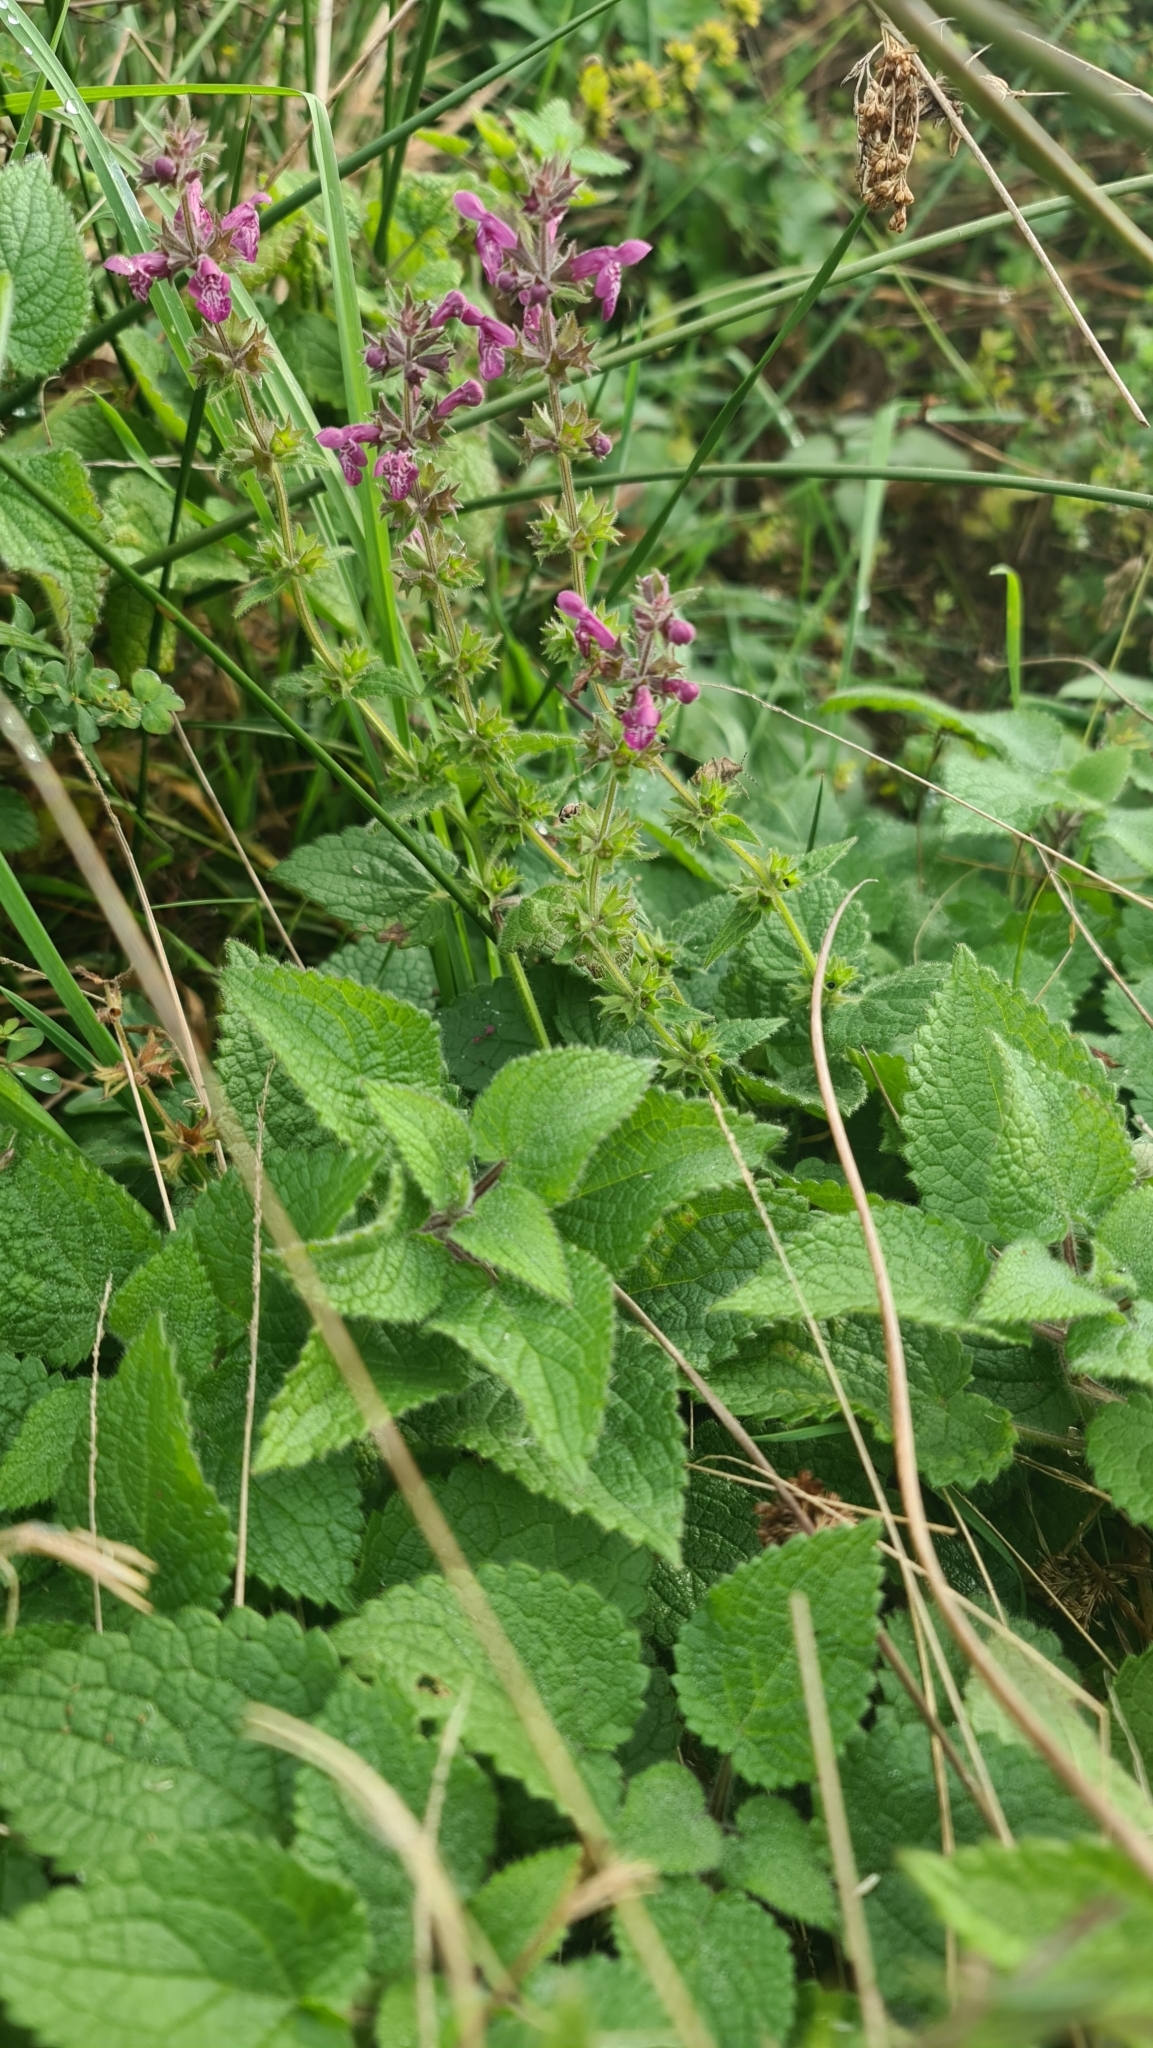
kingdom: Plantae
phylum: Tracheophyta
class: Magnoliopsida
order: Lamiales
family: Lamiaceae
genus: Stachys
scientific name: Stachys sylvatica
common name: Hedge woundwort
